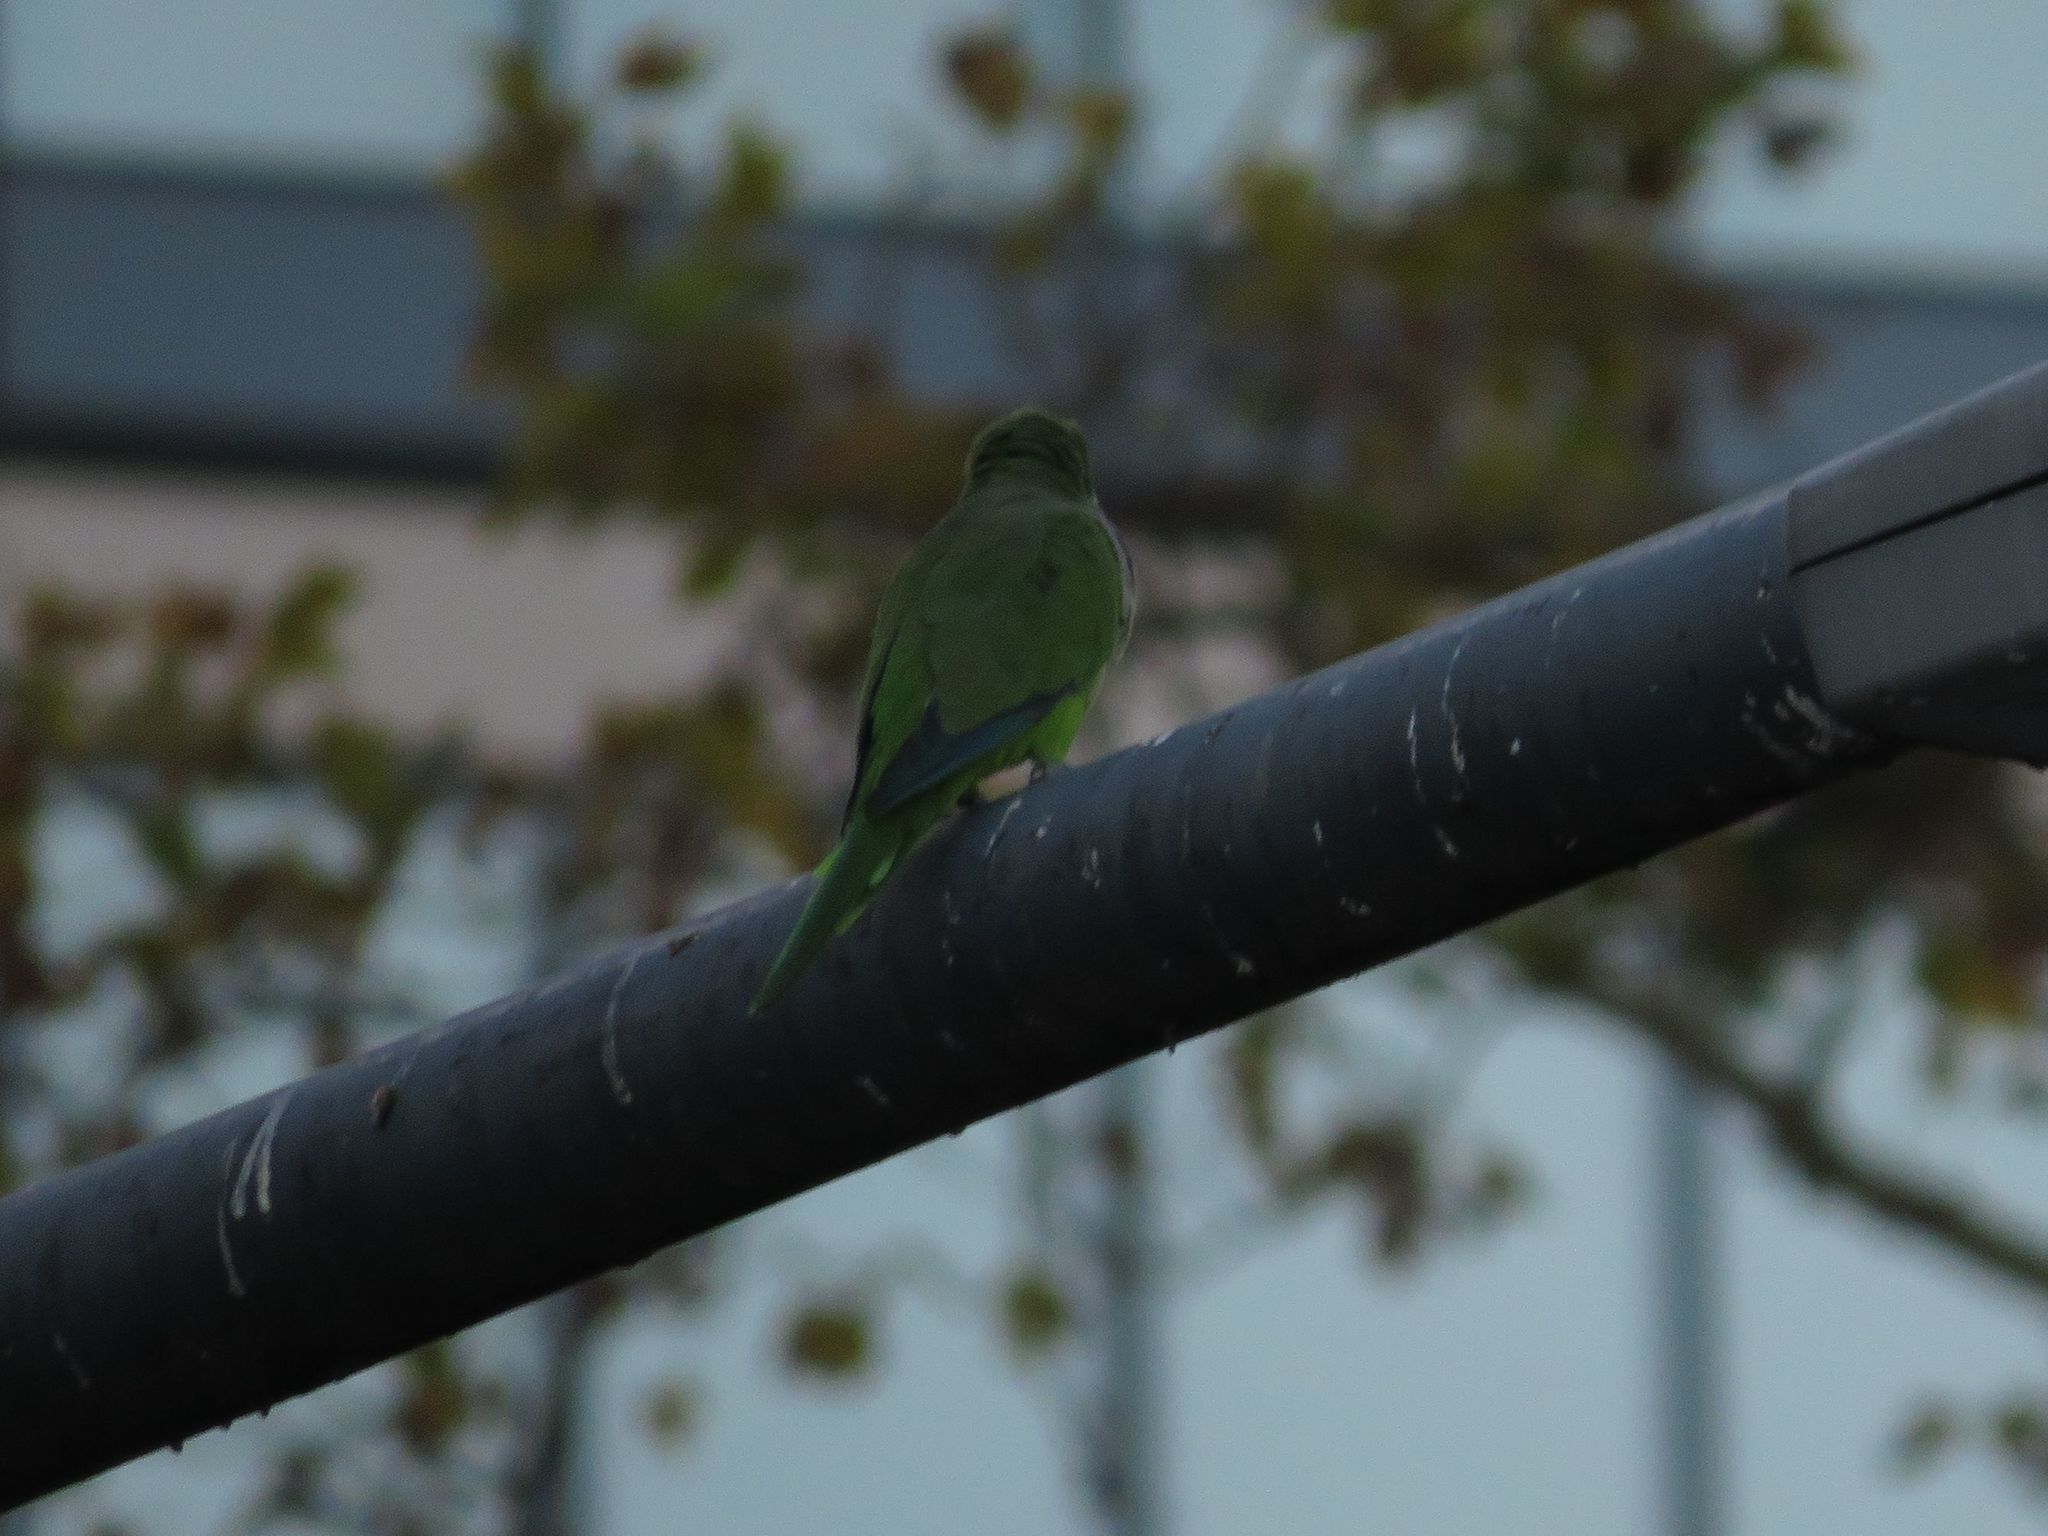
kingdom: Animalia
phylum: Chordata
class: Aves
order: Psittaciformes
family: Psittacidae
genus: Myiopsitta
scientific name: Myiopsitta monachus
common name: Monk parakeet
